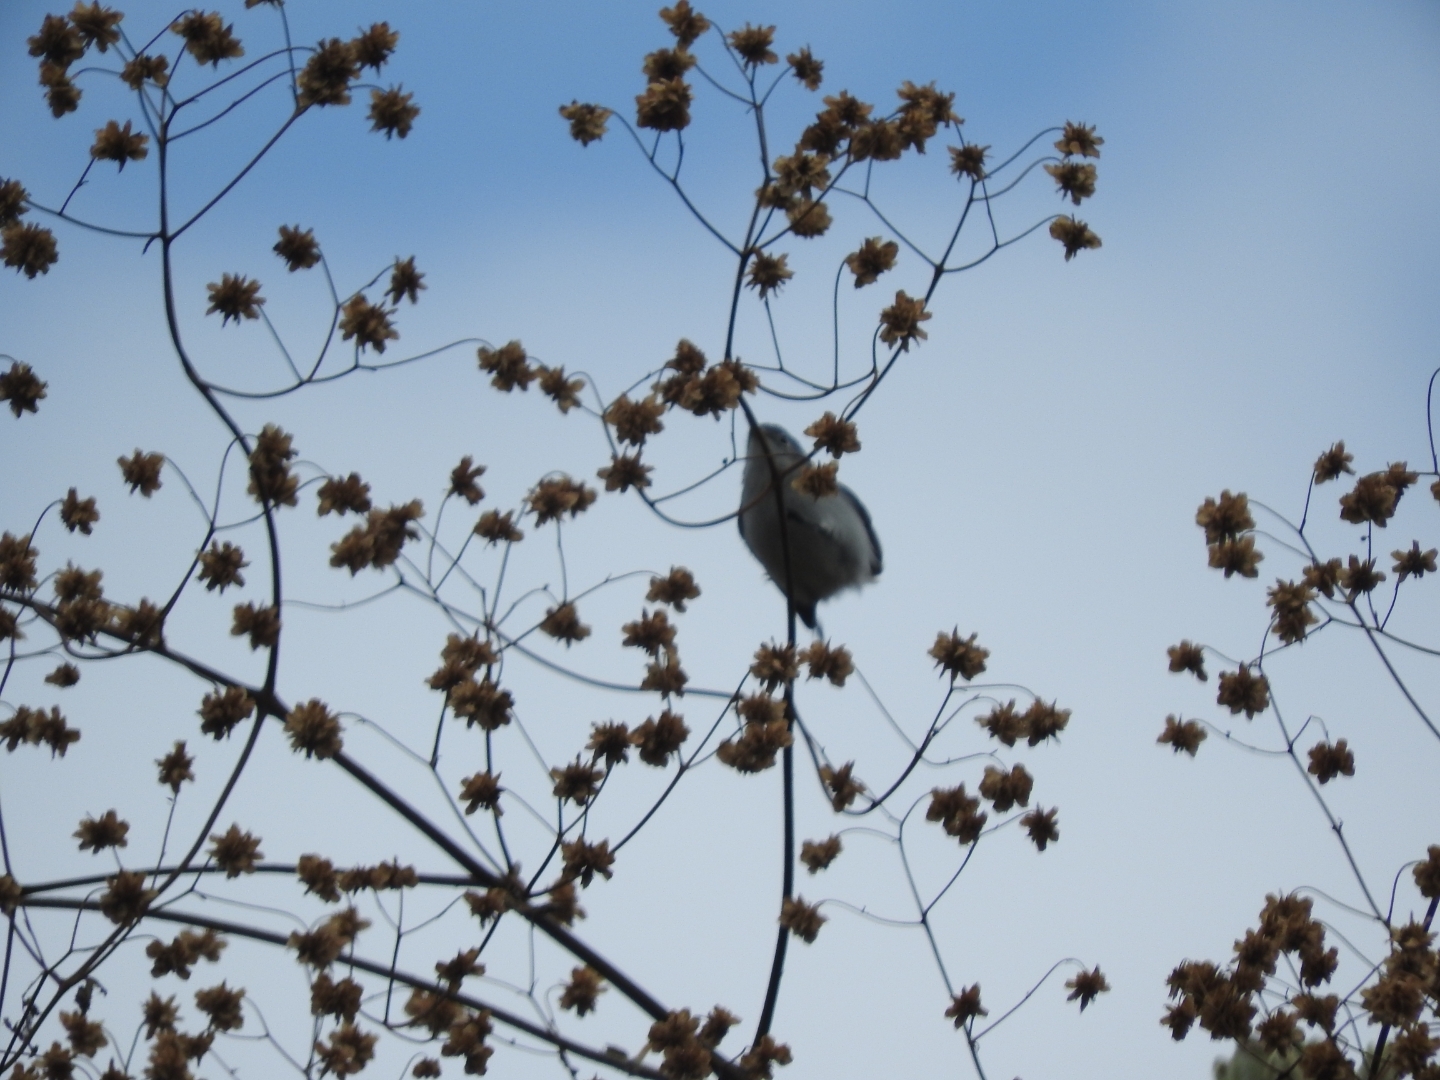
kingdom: Animalia
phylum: Chordata
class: Aves
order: Passeriformes
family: Polioptilidae
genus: Polioptila
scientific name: Polioptila caerulea
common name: Blue-gray gnatcatcher
